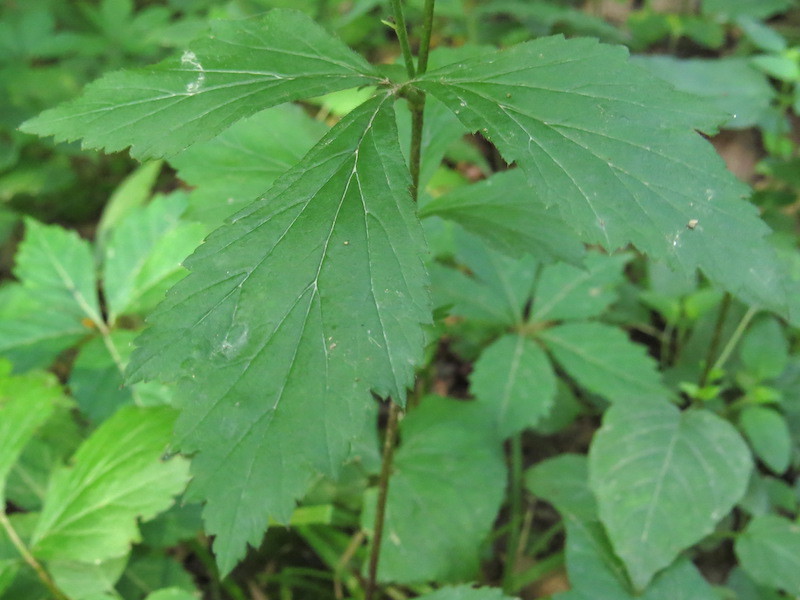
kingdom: Plantae
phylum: Tracheophyta
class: Magnoliopsida
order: Rosales
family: Rosaceae
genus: Geum
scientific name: Geum canadense
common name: White avens
